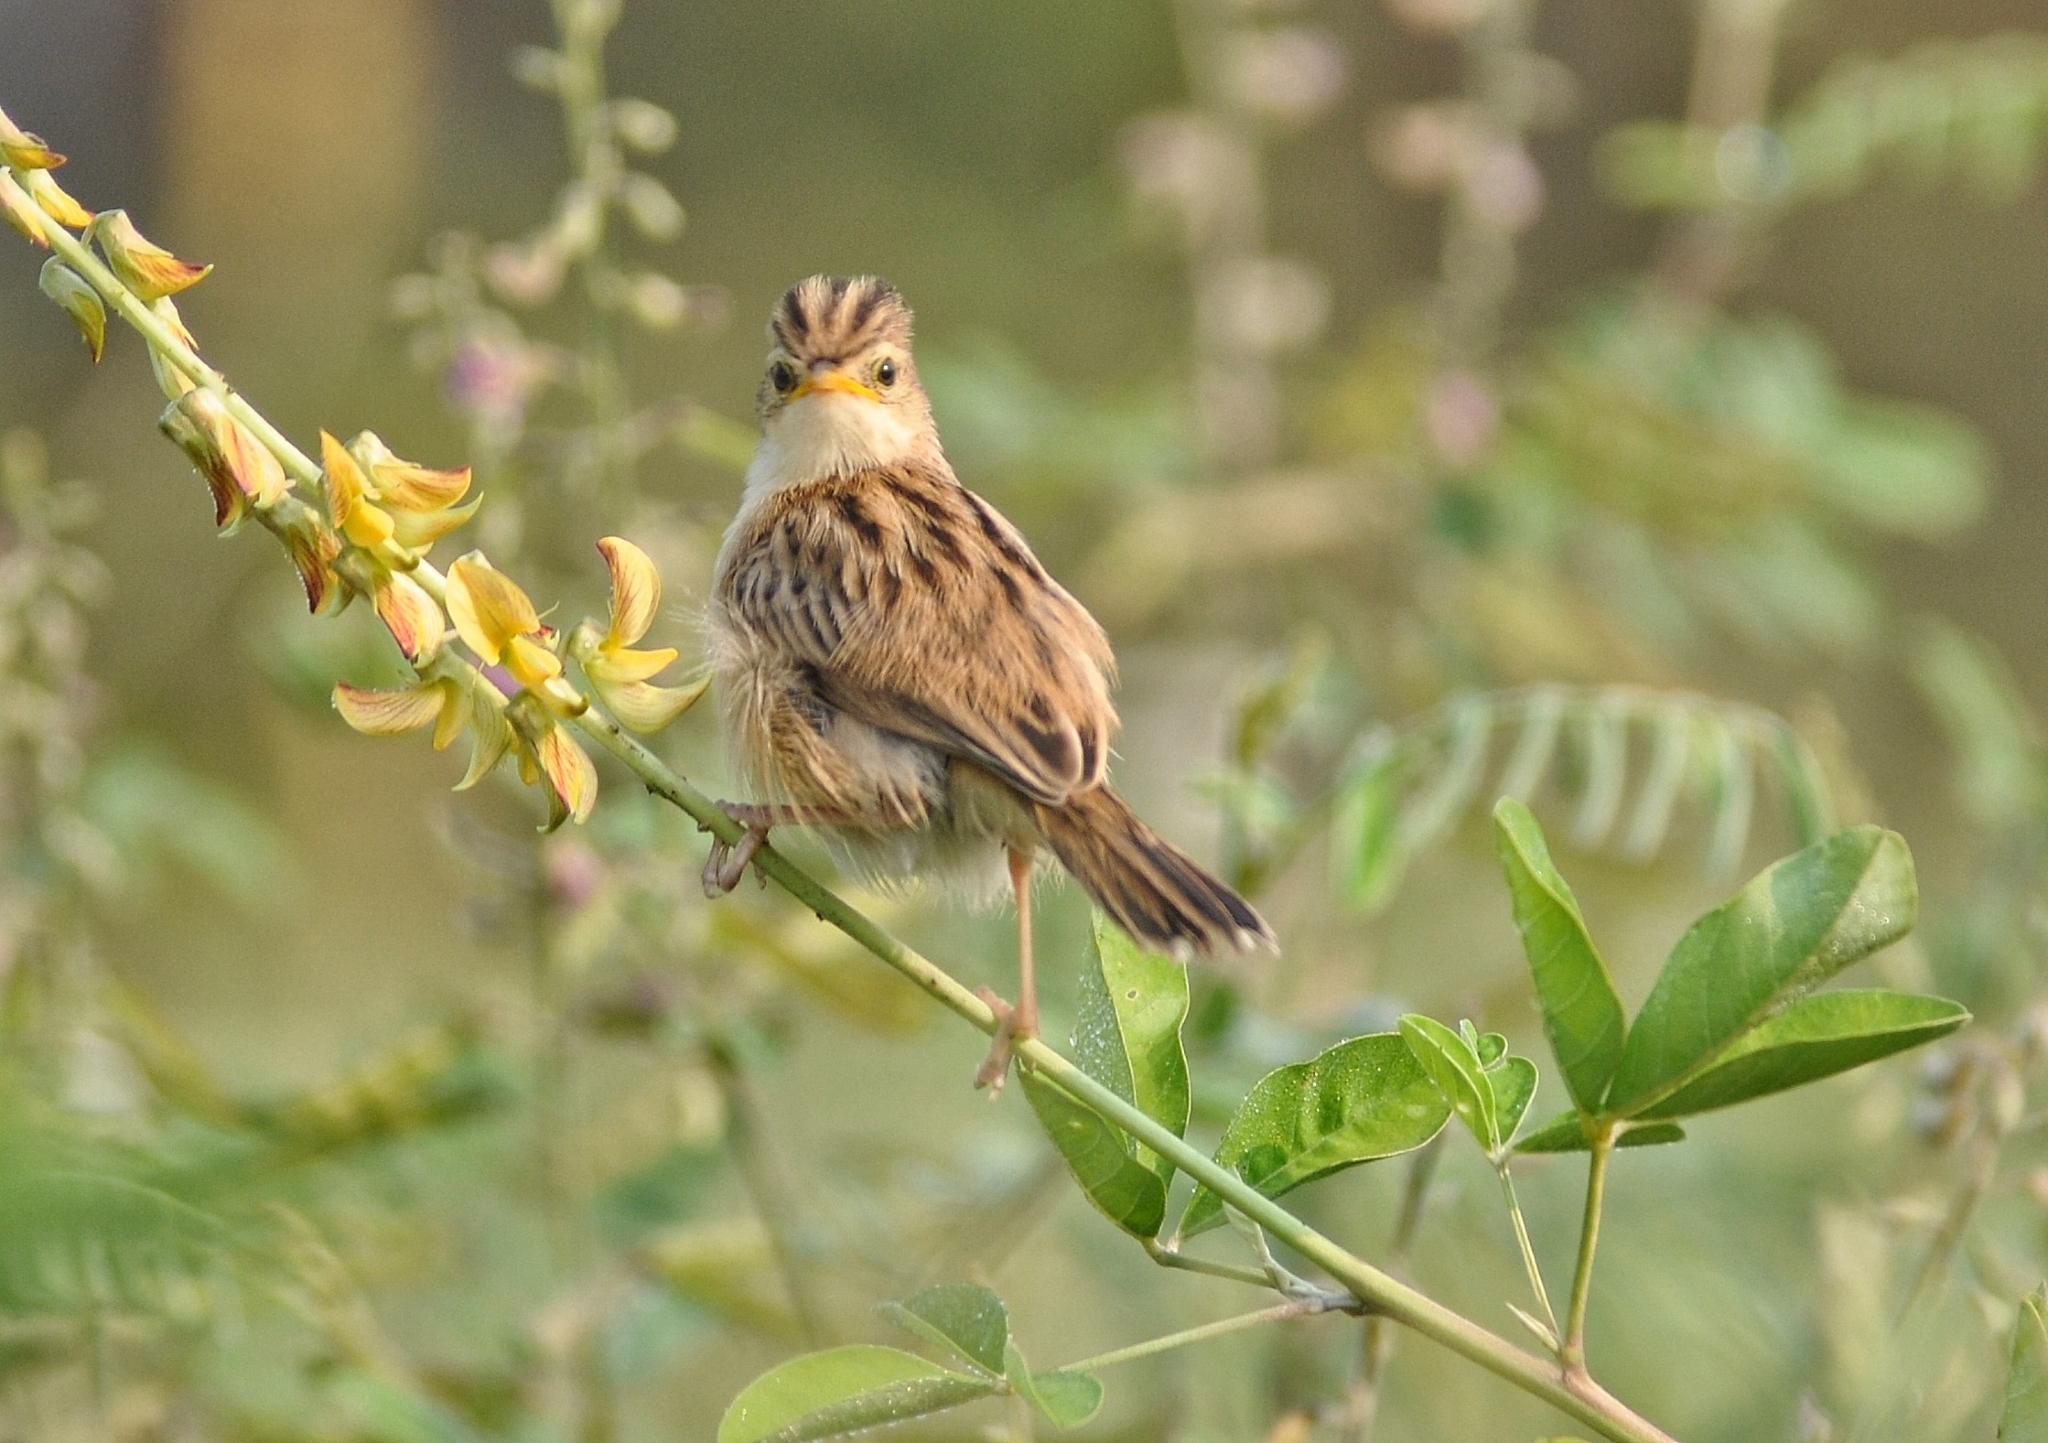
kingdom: Animalia
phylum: Chordata
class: Aves
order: Passeriformes
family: Cisticolidae
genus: Cisticola
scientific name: Cisticola juncidis
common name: Zitting cisticola
